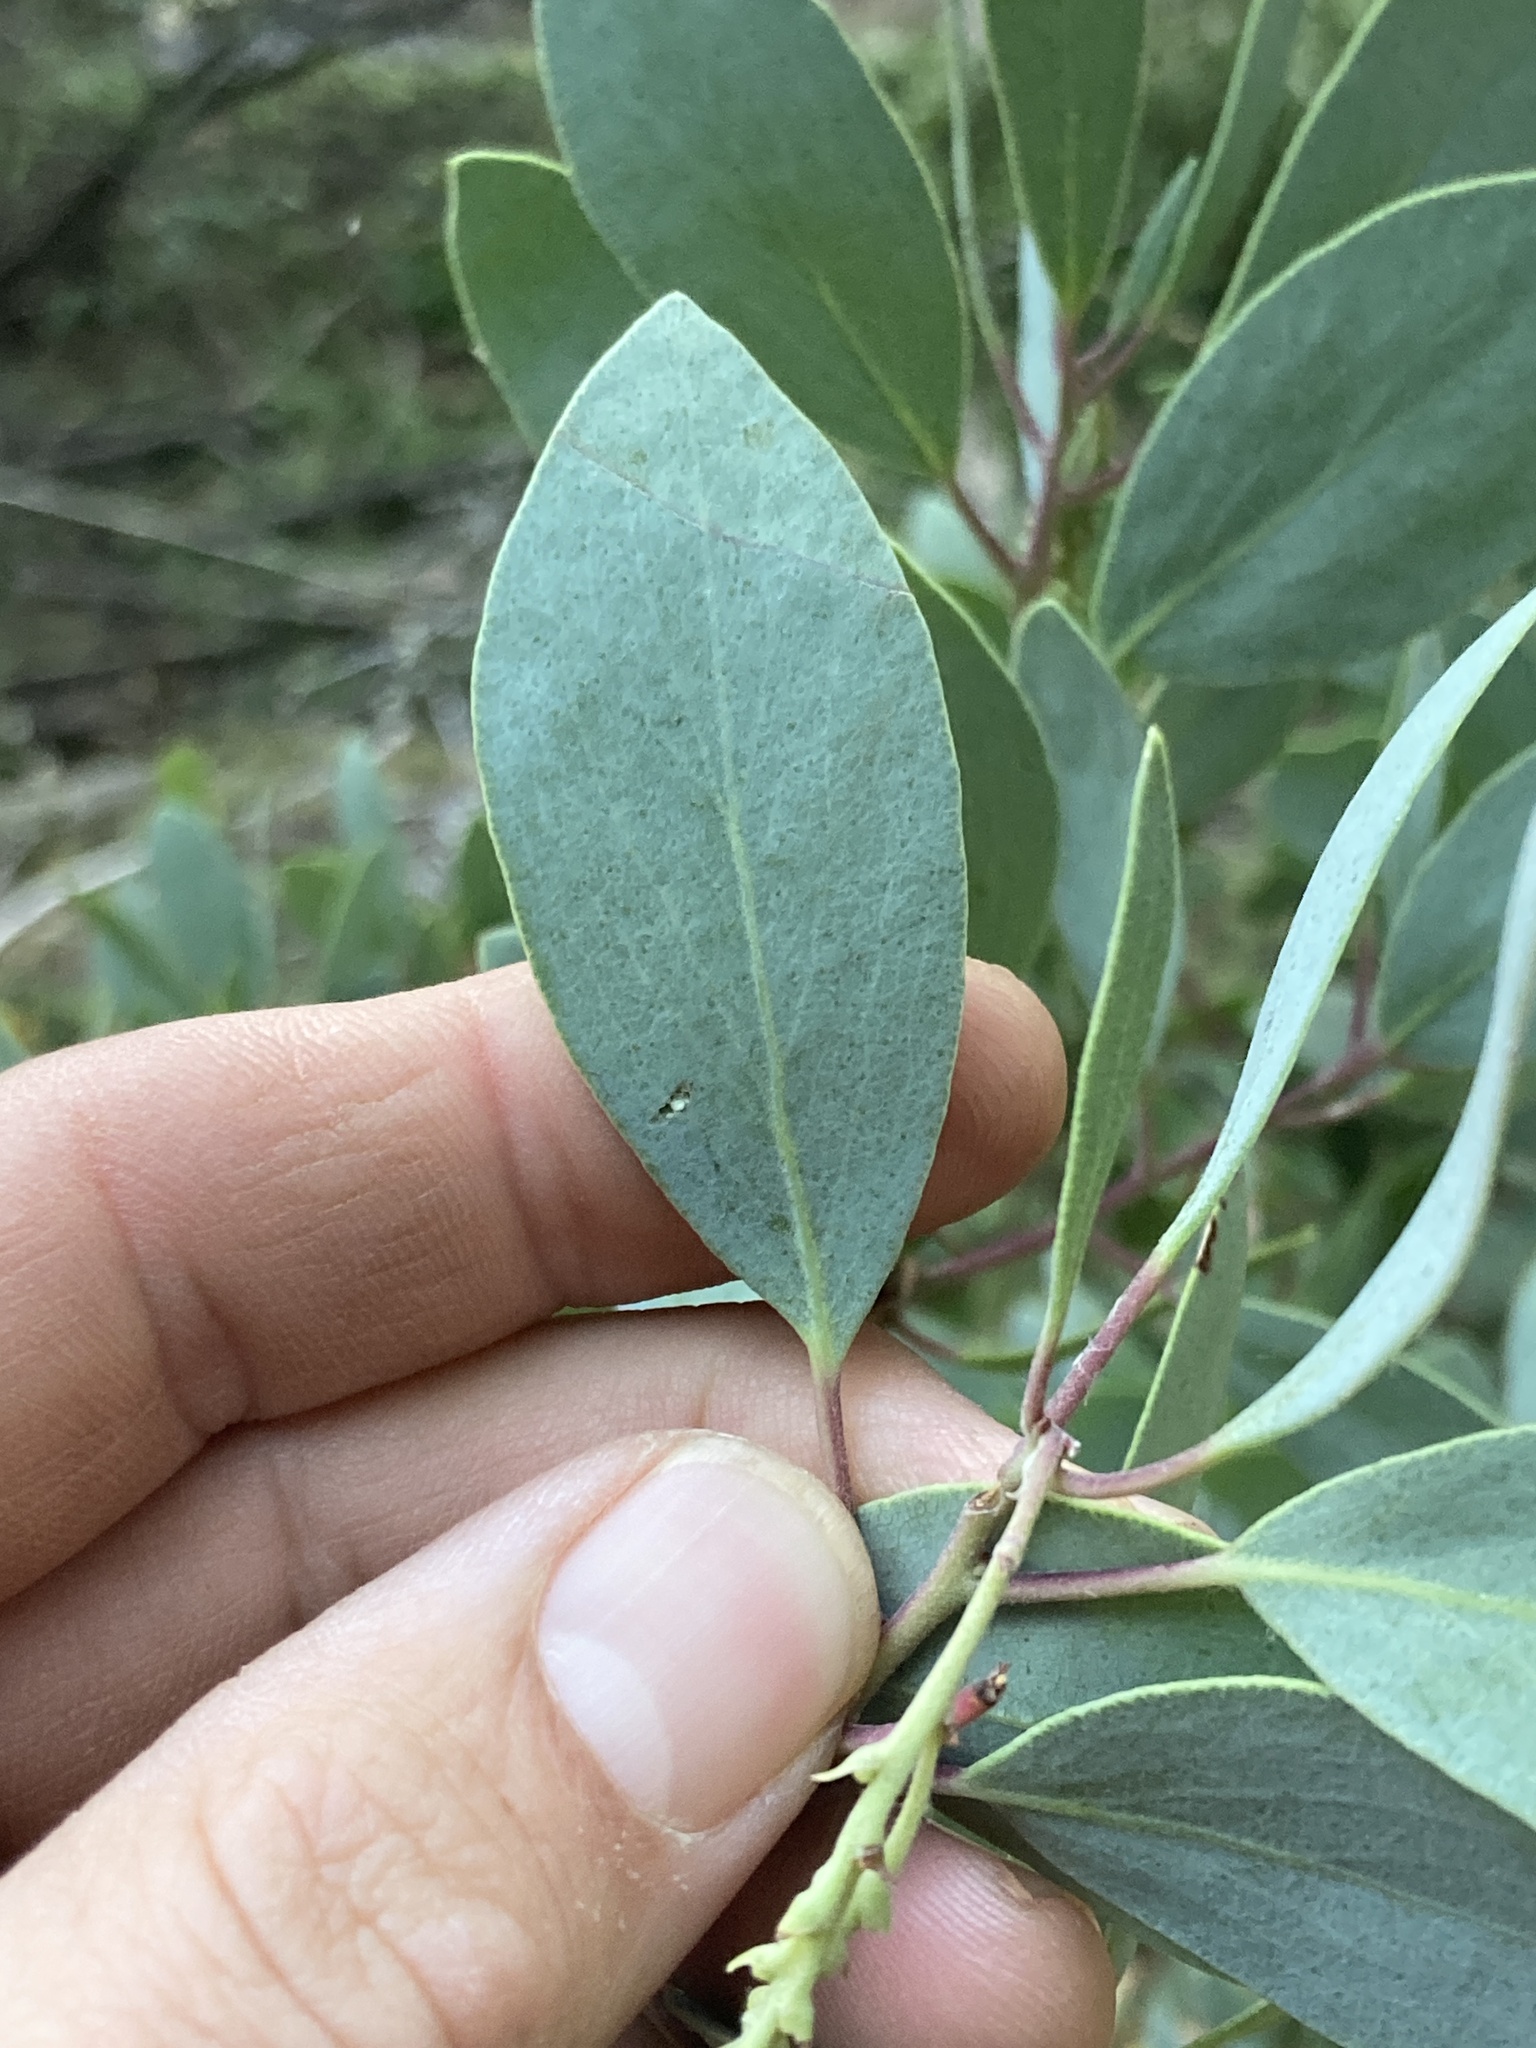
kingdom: Plantae
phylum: Tracheophyta
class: Magnoliopsida
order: Ericales
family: Ericaceae
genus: Arctostaphylos
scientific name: Arctostaphylos mewukka
